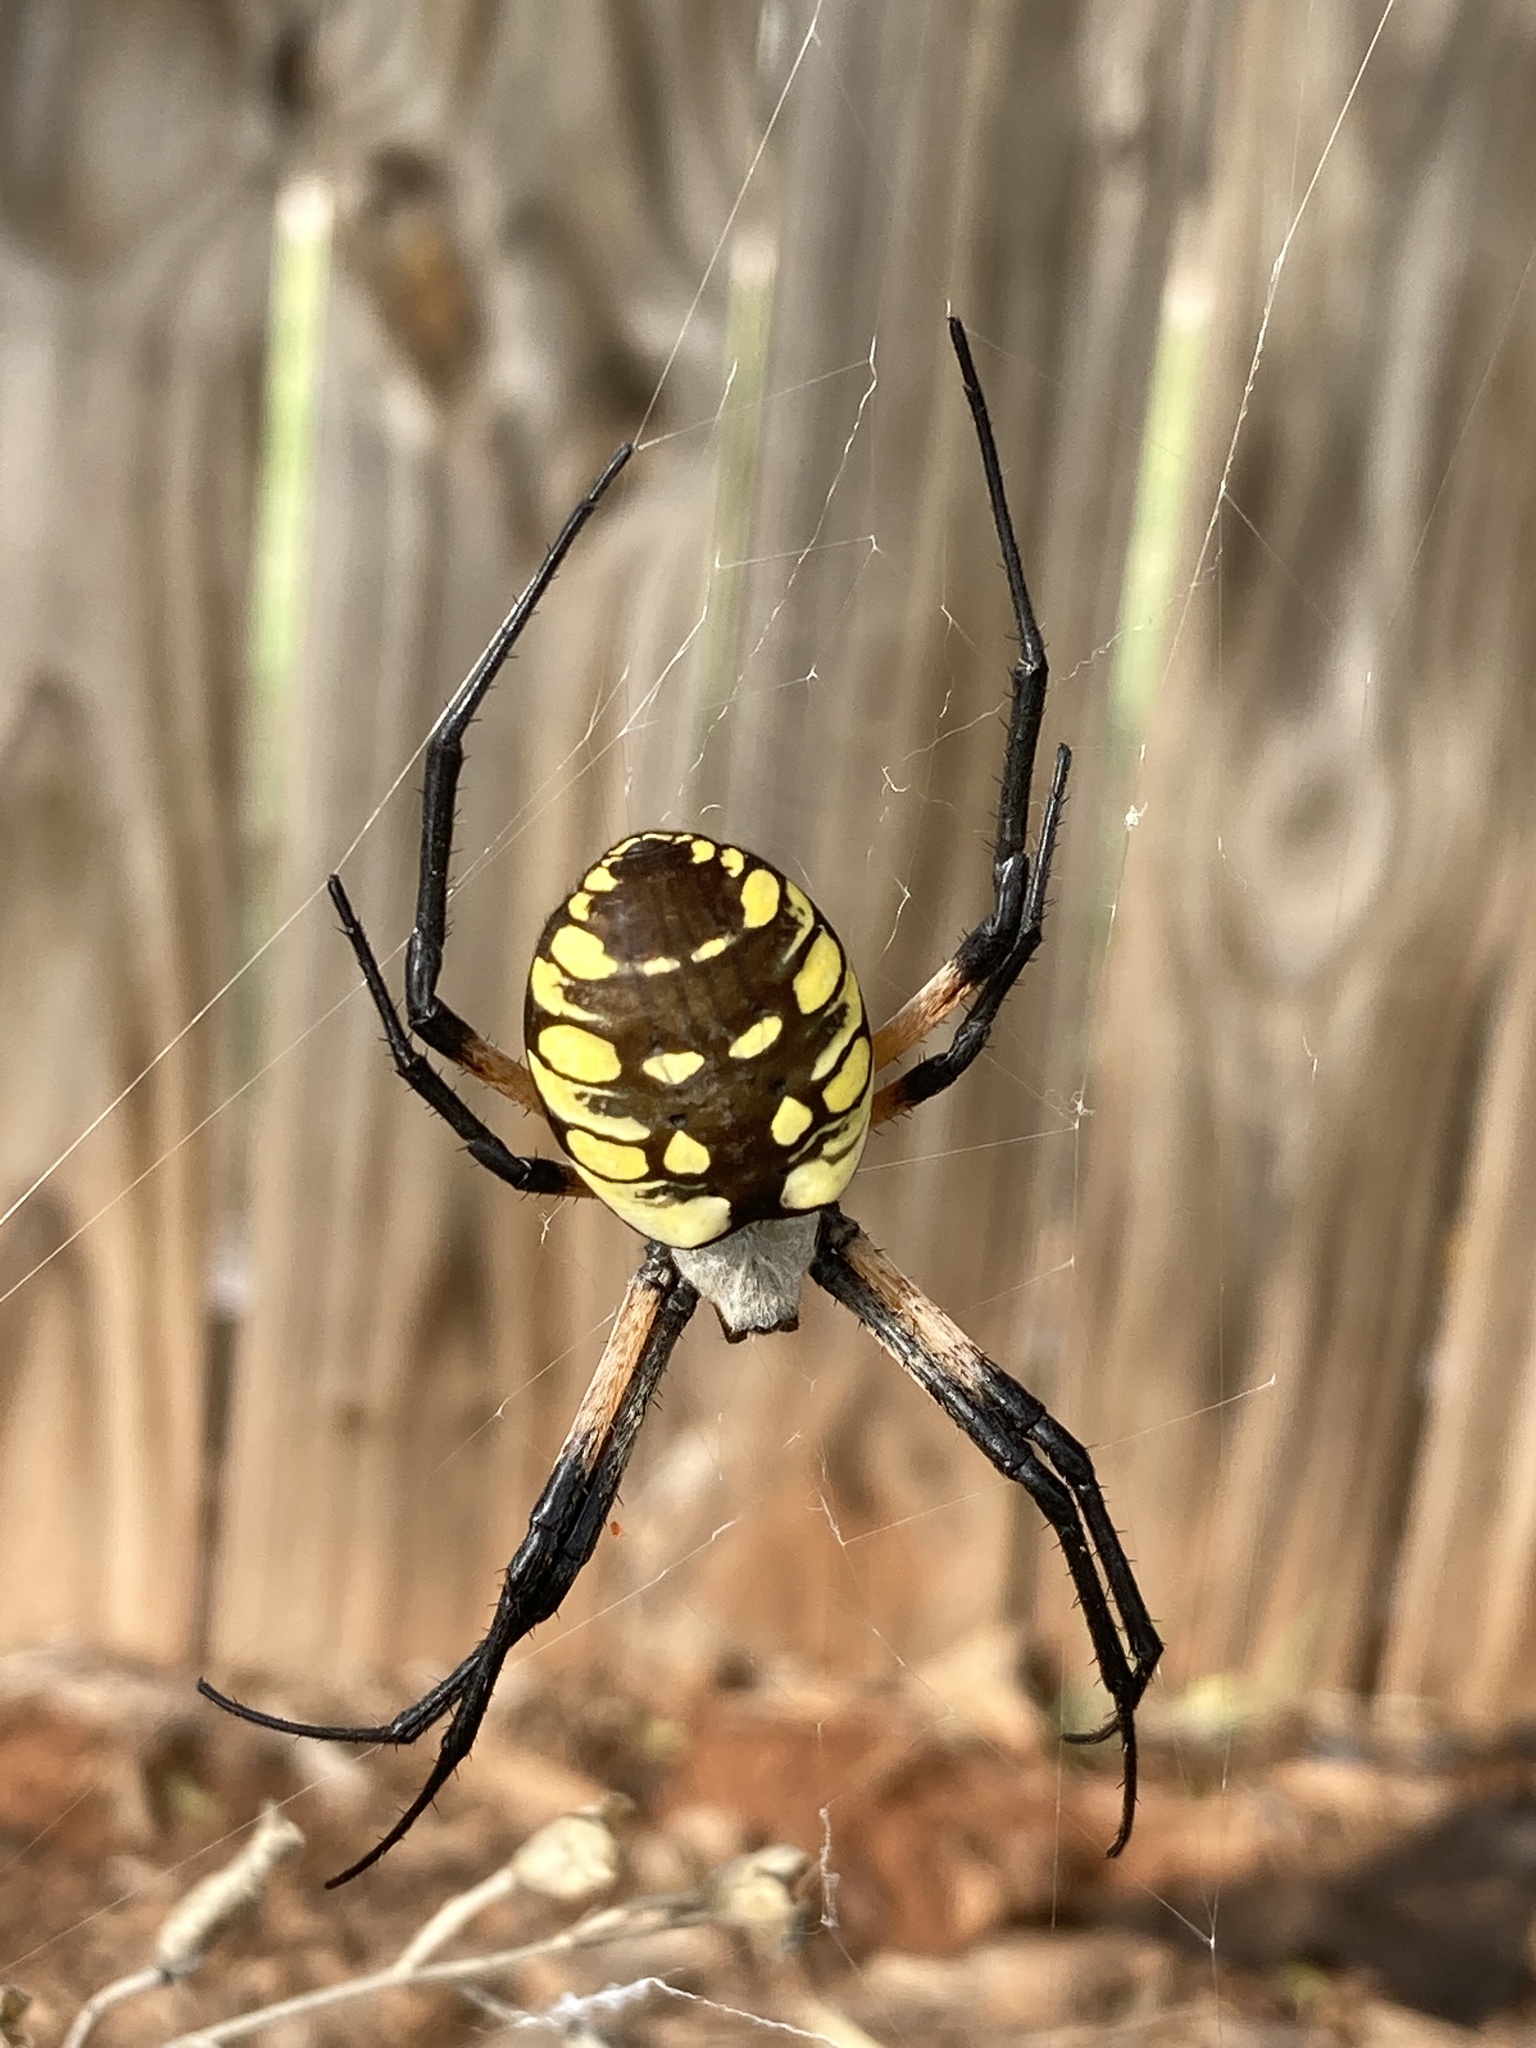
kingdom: Animalia
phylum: Arthropoda
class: Arachnida
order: Araneae
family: Araneidae
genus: Argiope
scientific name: Argiope aurantia
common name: Orb weavers
